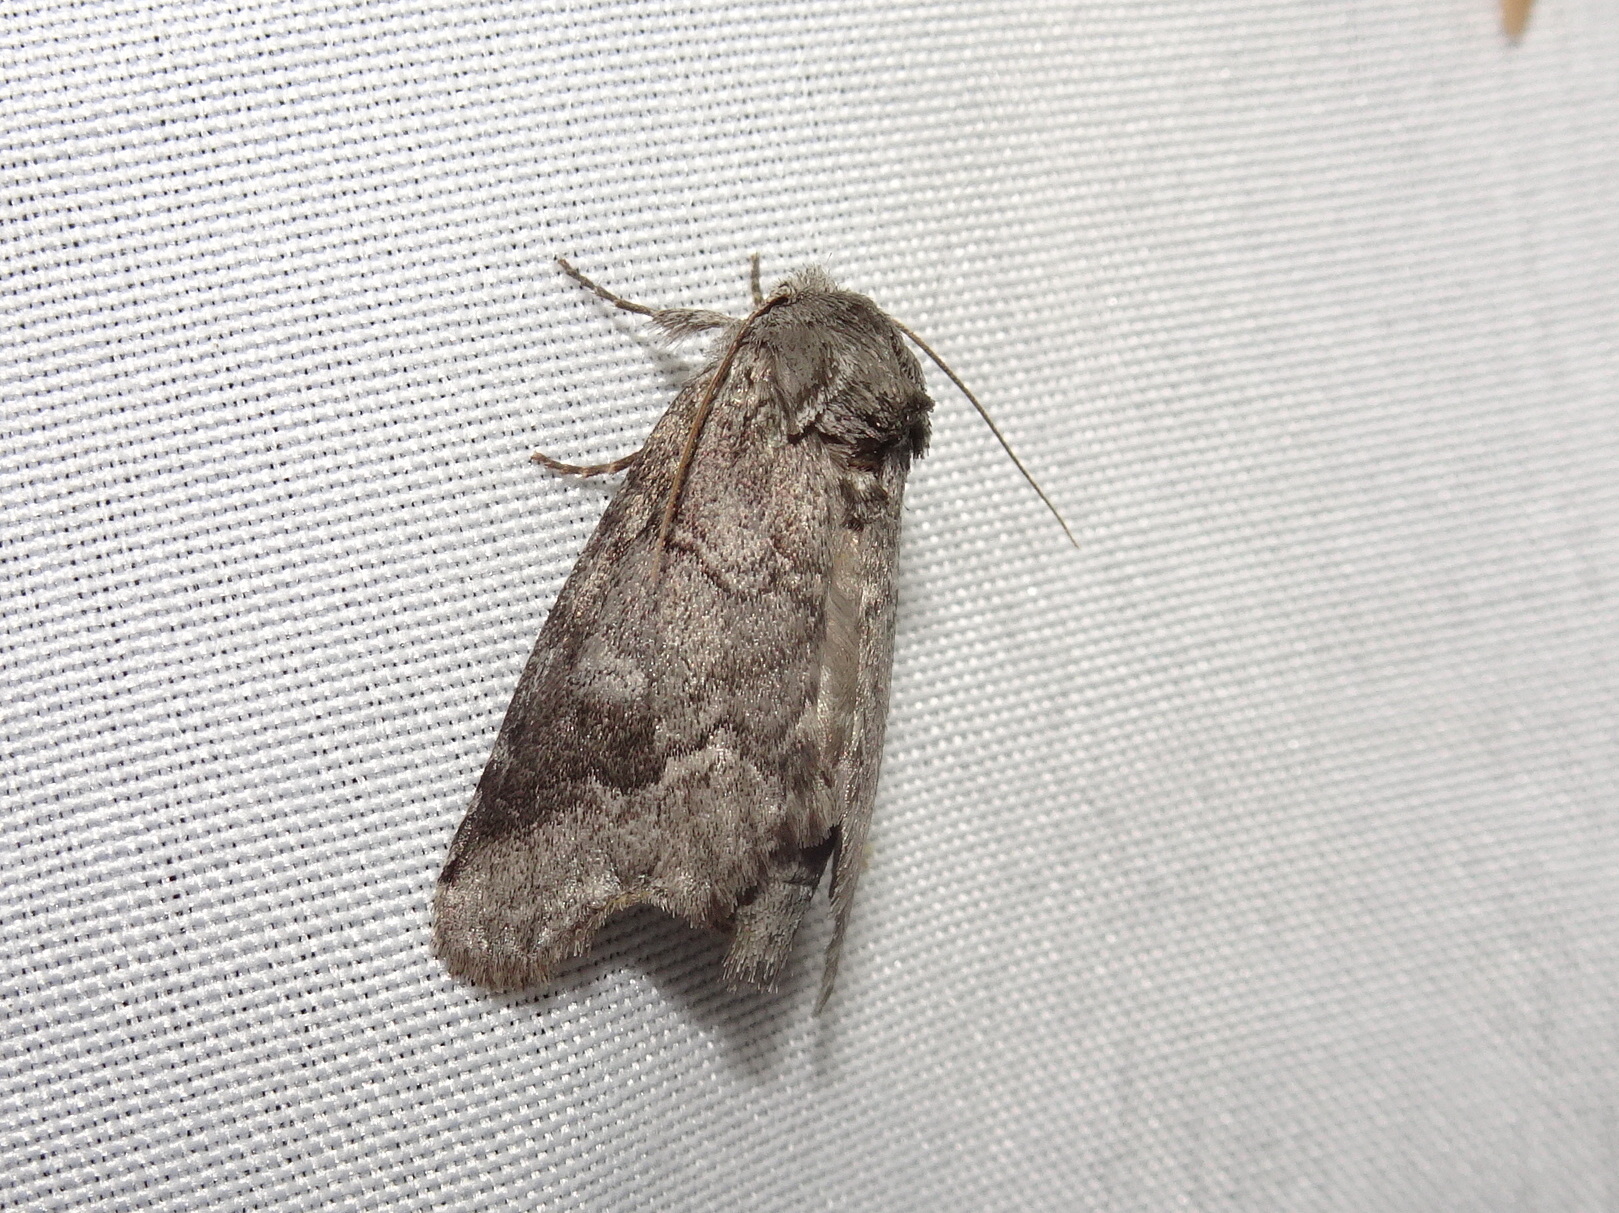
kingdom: Animalia
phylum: Arthropoda
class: Insecta
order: Lepidoptera
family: Notodontidae
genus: Lochmaeus
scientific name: Lochmaeus bilineata
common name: Double-lined prominent
